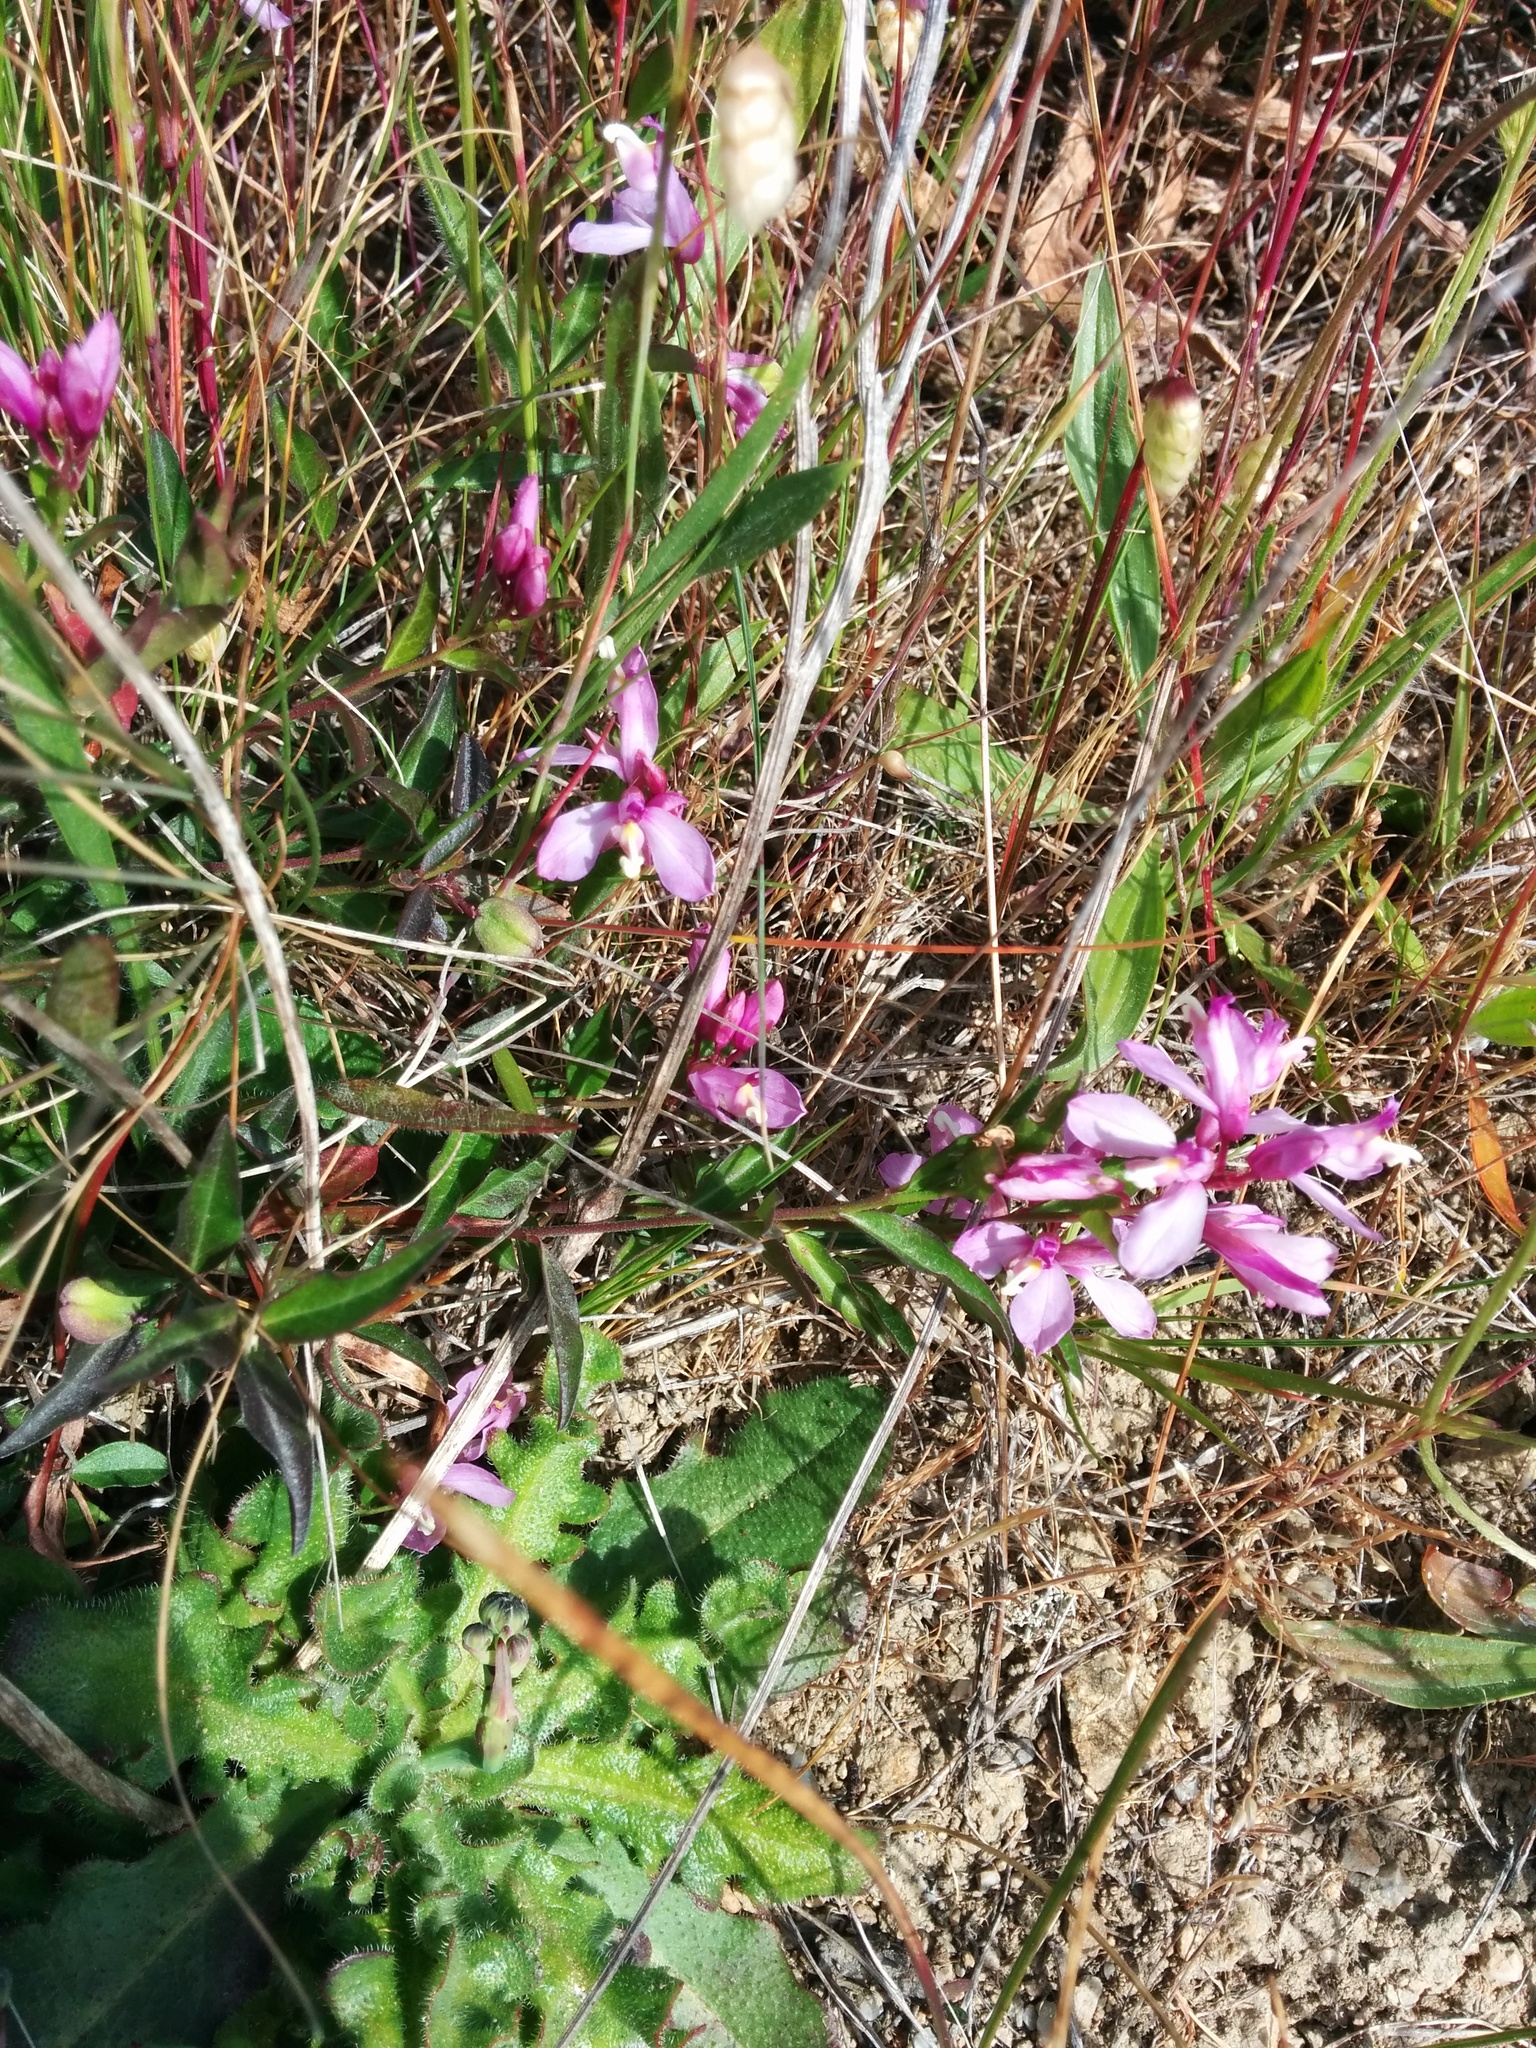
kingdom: Plantae
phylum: Tracheophyta
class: Magnoliopsida
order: Fabales
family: Polygalaceae
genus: Rhinotropis
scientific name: Rhinotropis californica
